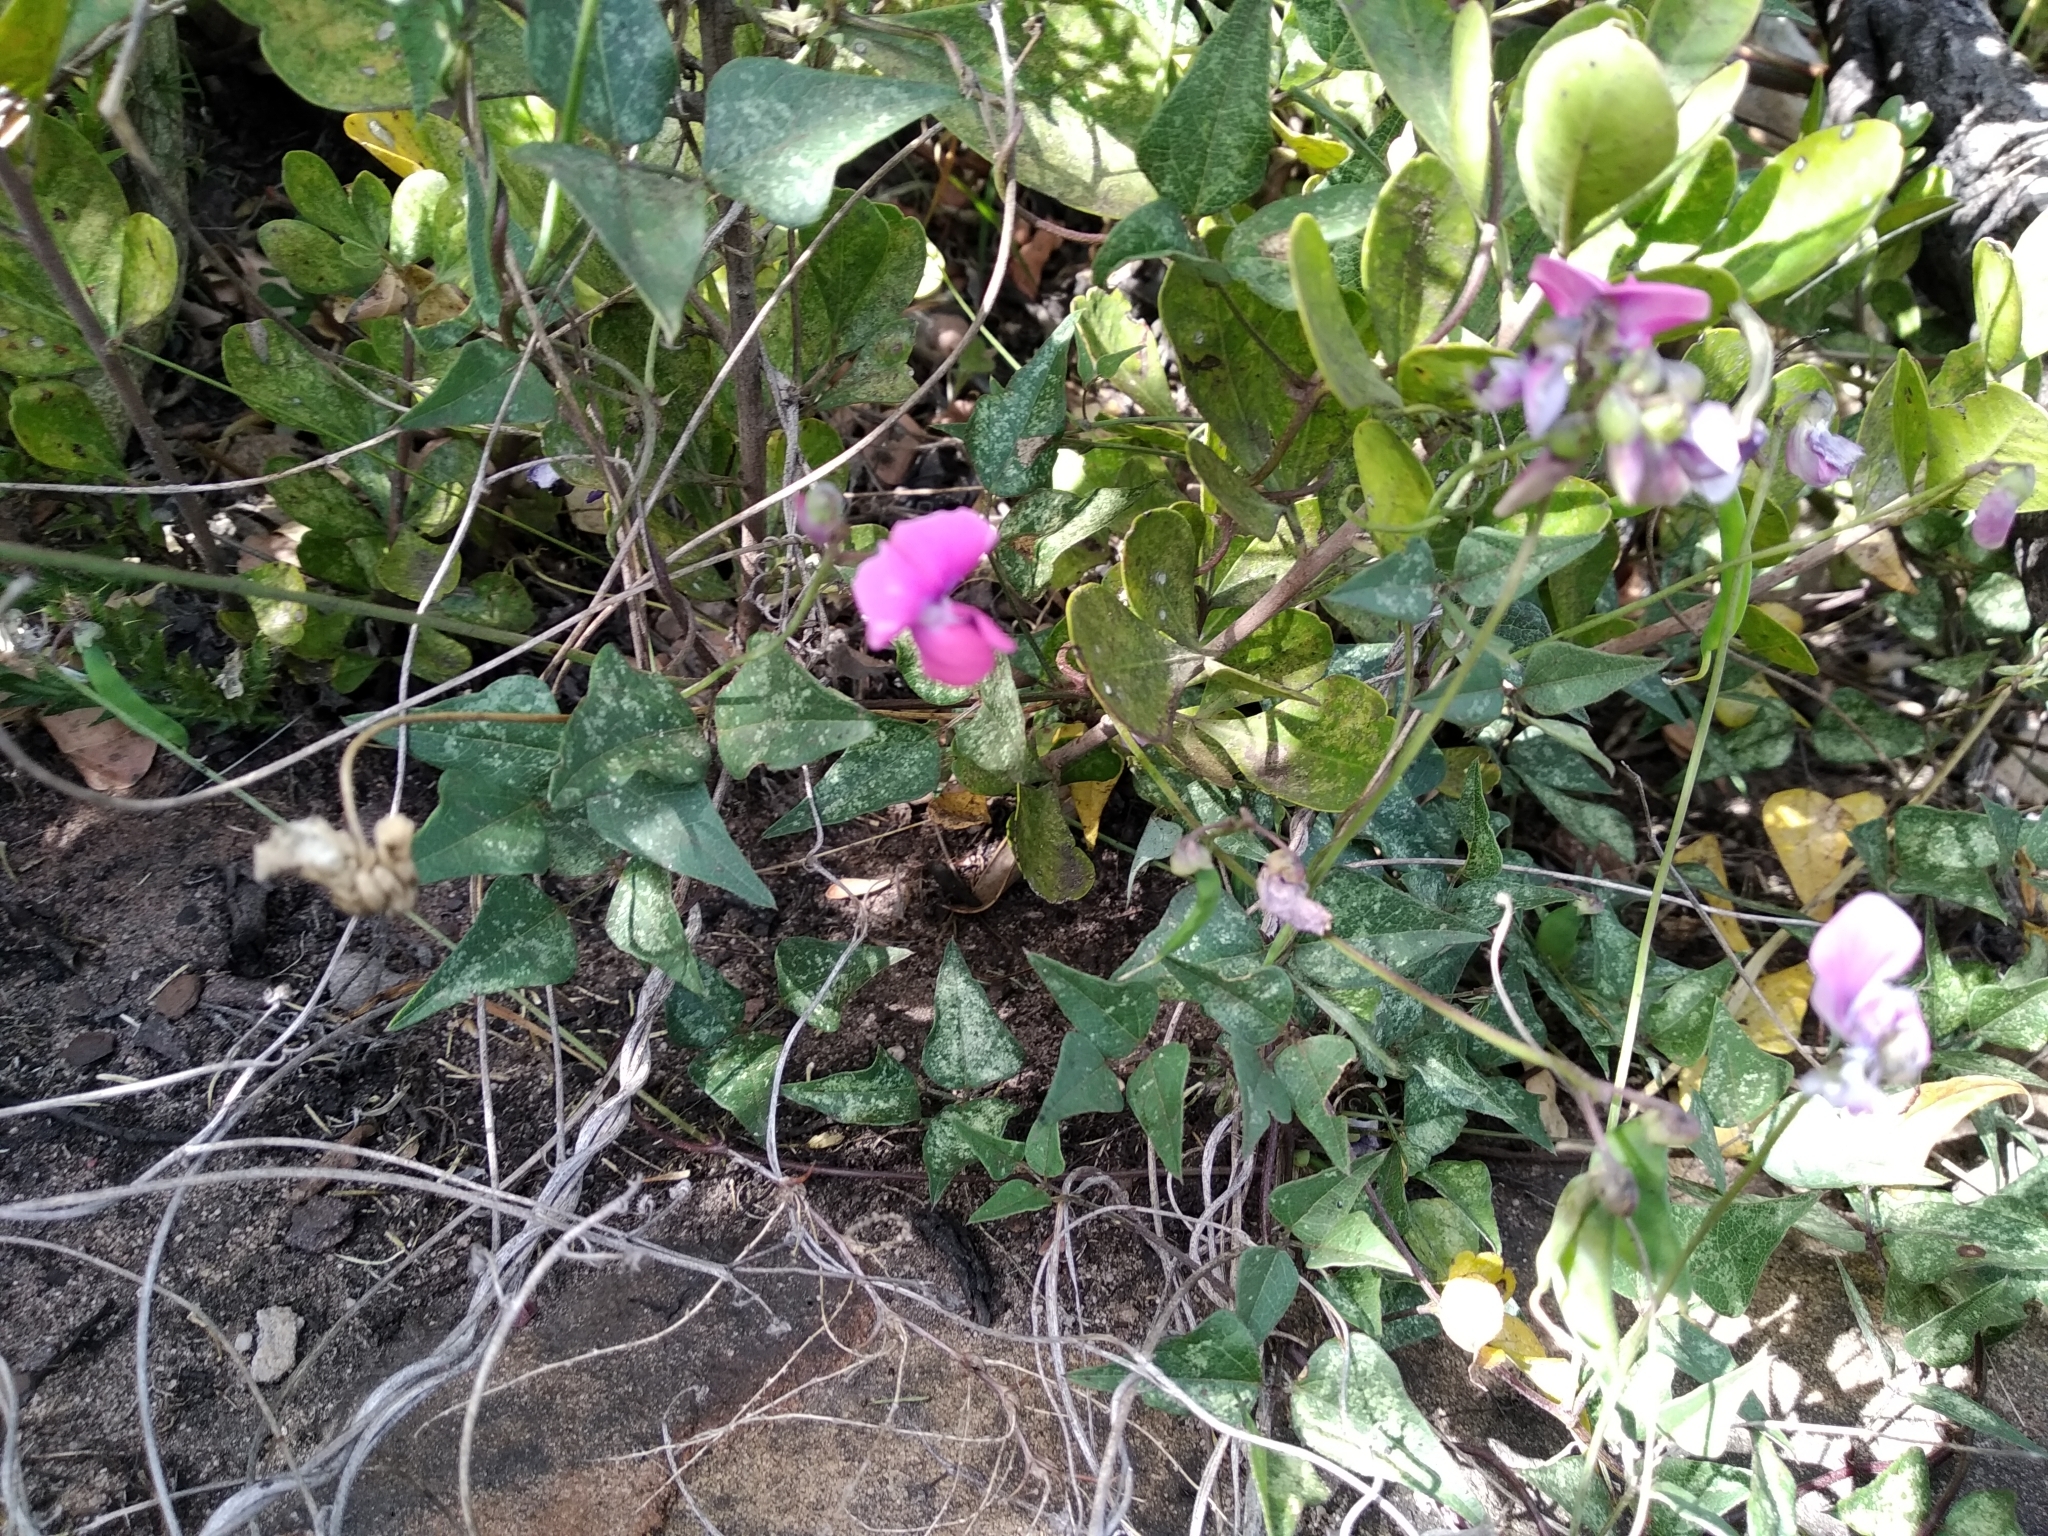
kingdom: Plantae
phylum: Tracheophyta
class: Magnoliopsida
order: Fabales
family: Fabaceae
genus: Dipogon
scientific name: Dipogon lignosus
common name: Okie bean
